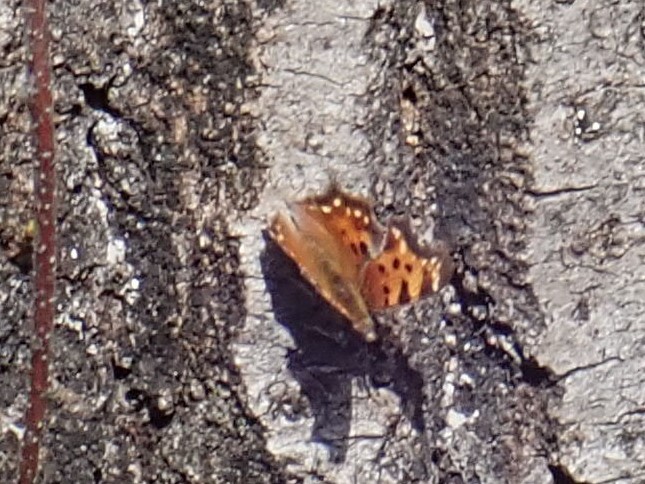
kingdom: Animalia
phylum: Arthropoda
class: Insecta
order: Lepidoptera
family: Nymphalidae
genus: Polygonia
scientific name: Polygonia faunus
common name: Green comma
